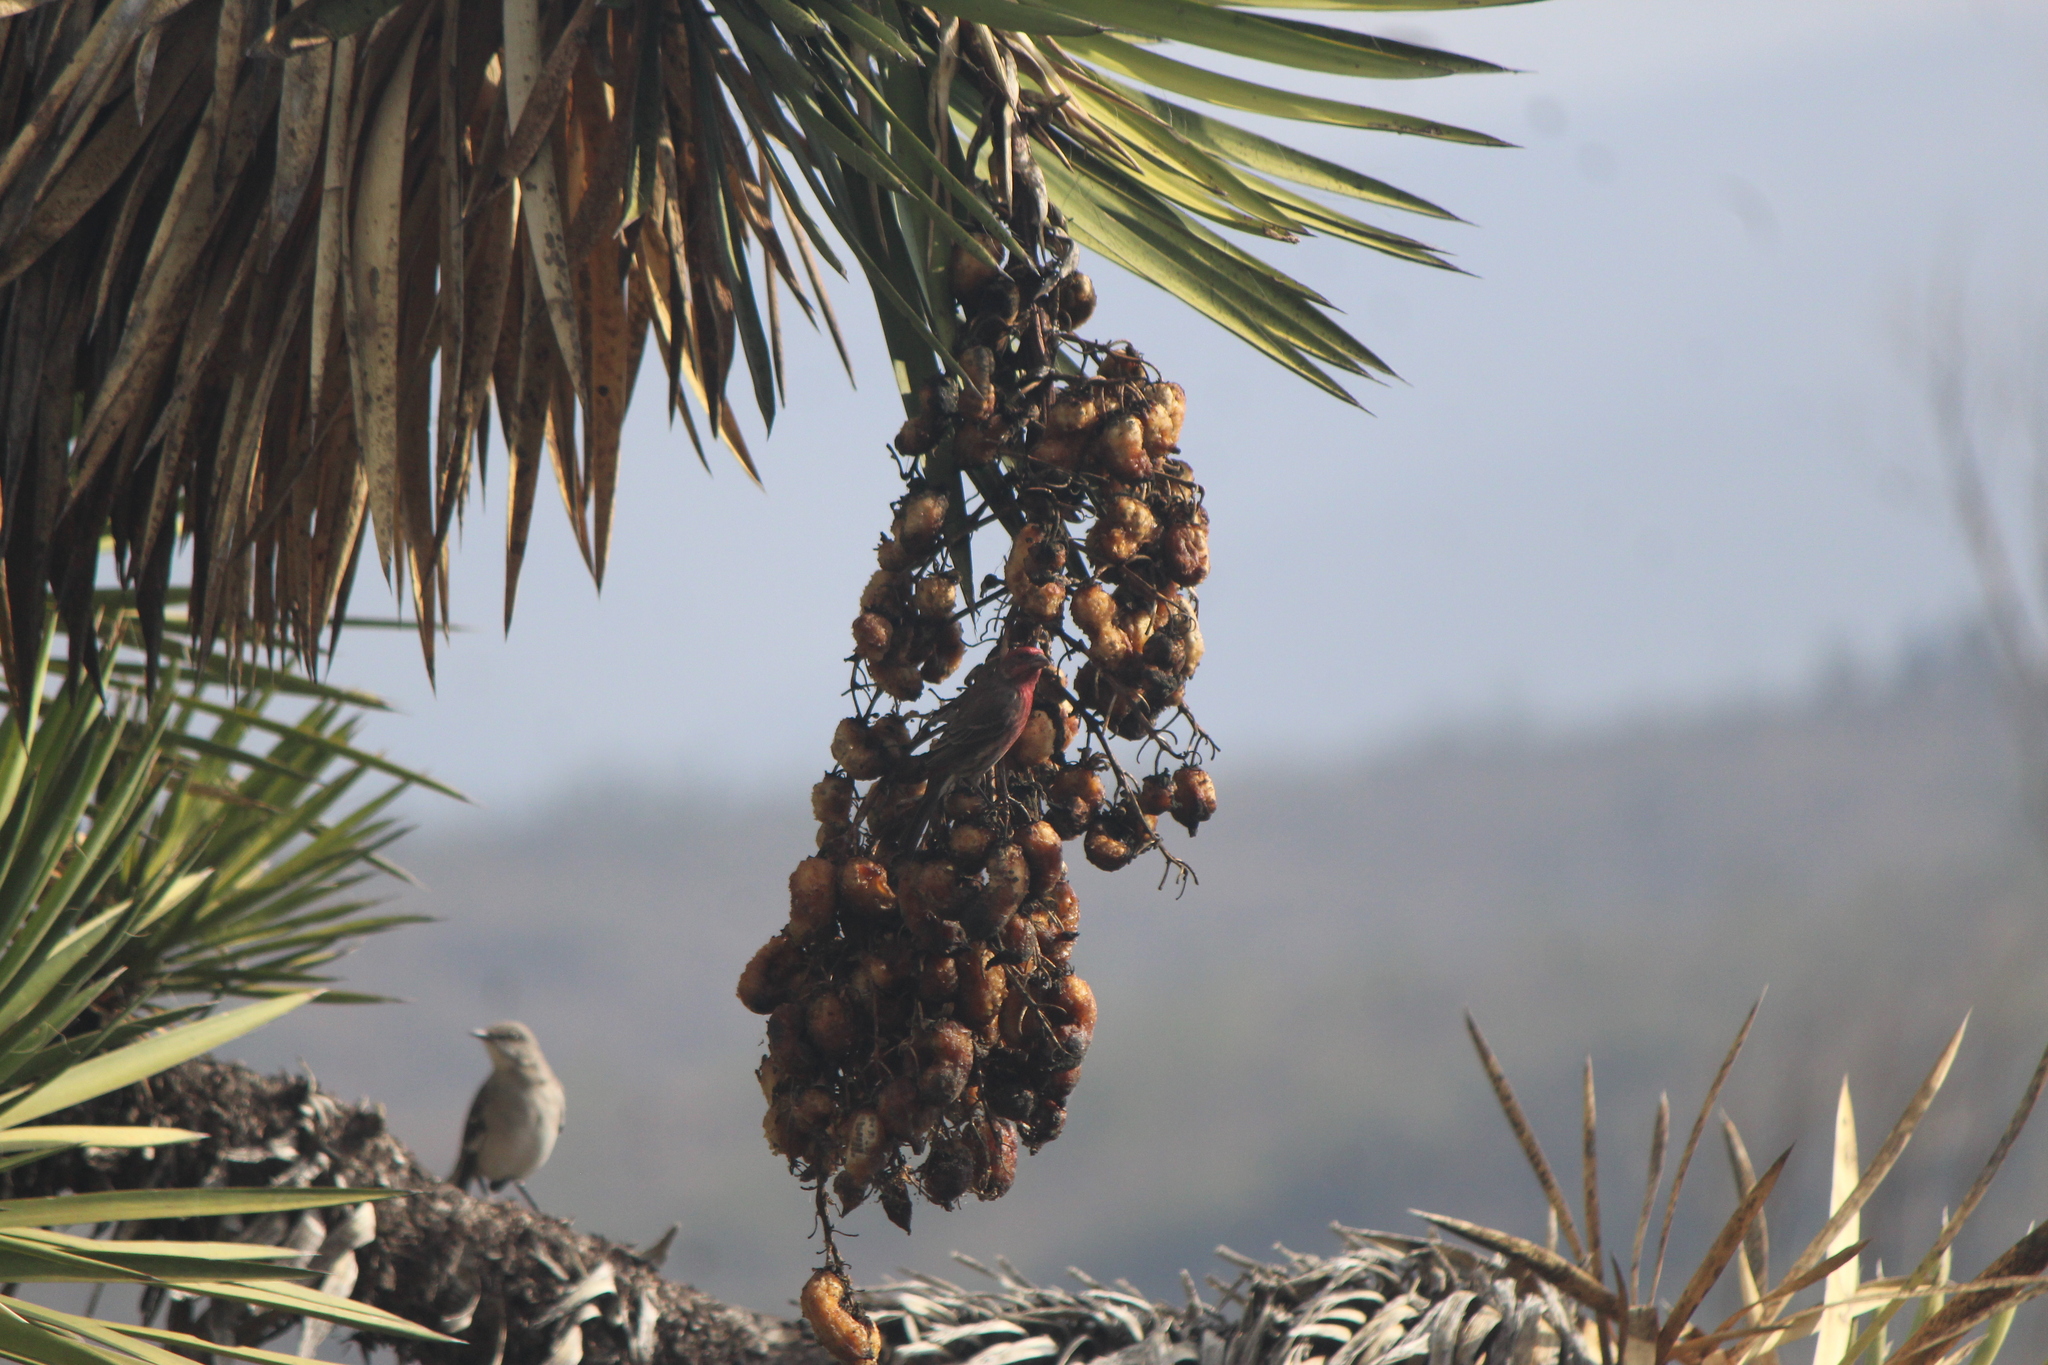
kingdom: Animalia
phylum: Chordata
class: Aves
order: Passeriformes
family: Fringillidae
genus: Haemorhous
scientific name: Haemorhous mexicanus
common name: House finch
